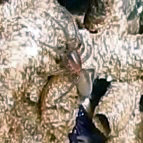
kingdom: Animalia
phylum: Arthropoda
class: Arachnida
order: Araneae
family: Desidae
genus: Desis
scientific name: Desis formidabilis
